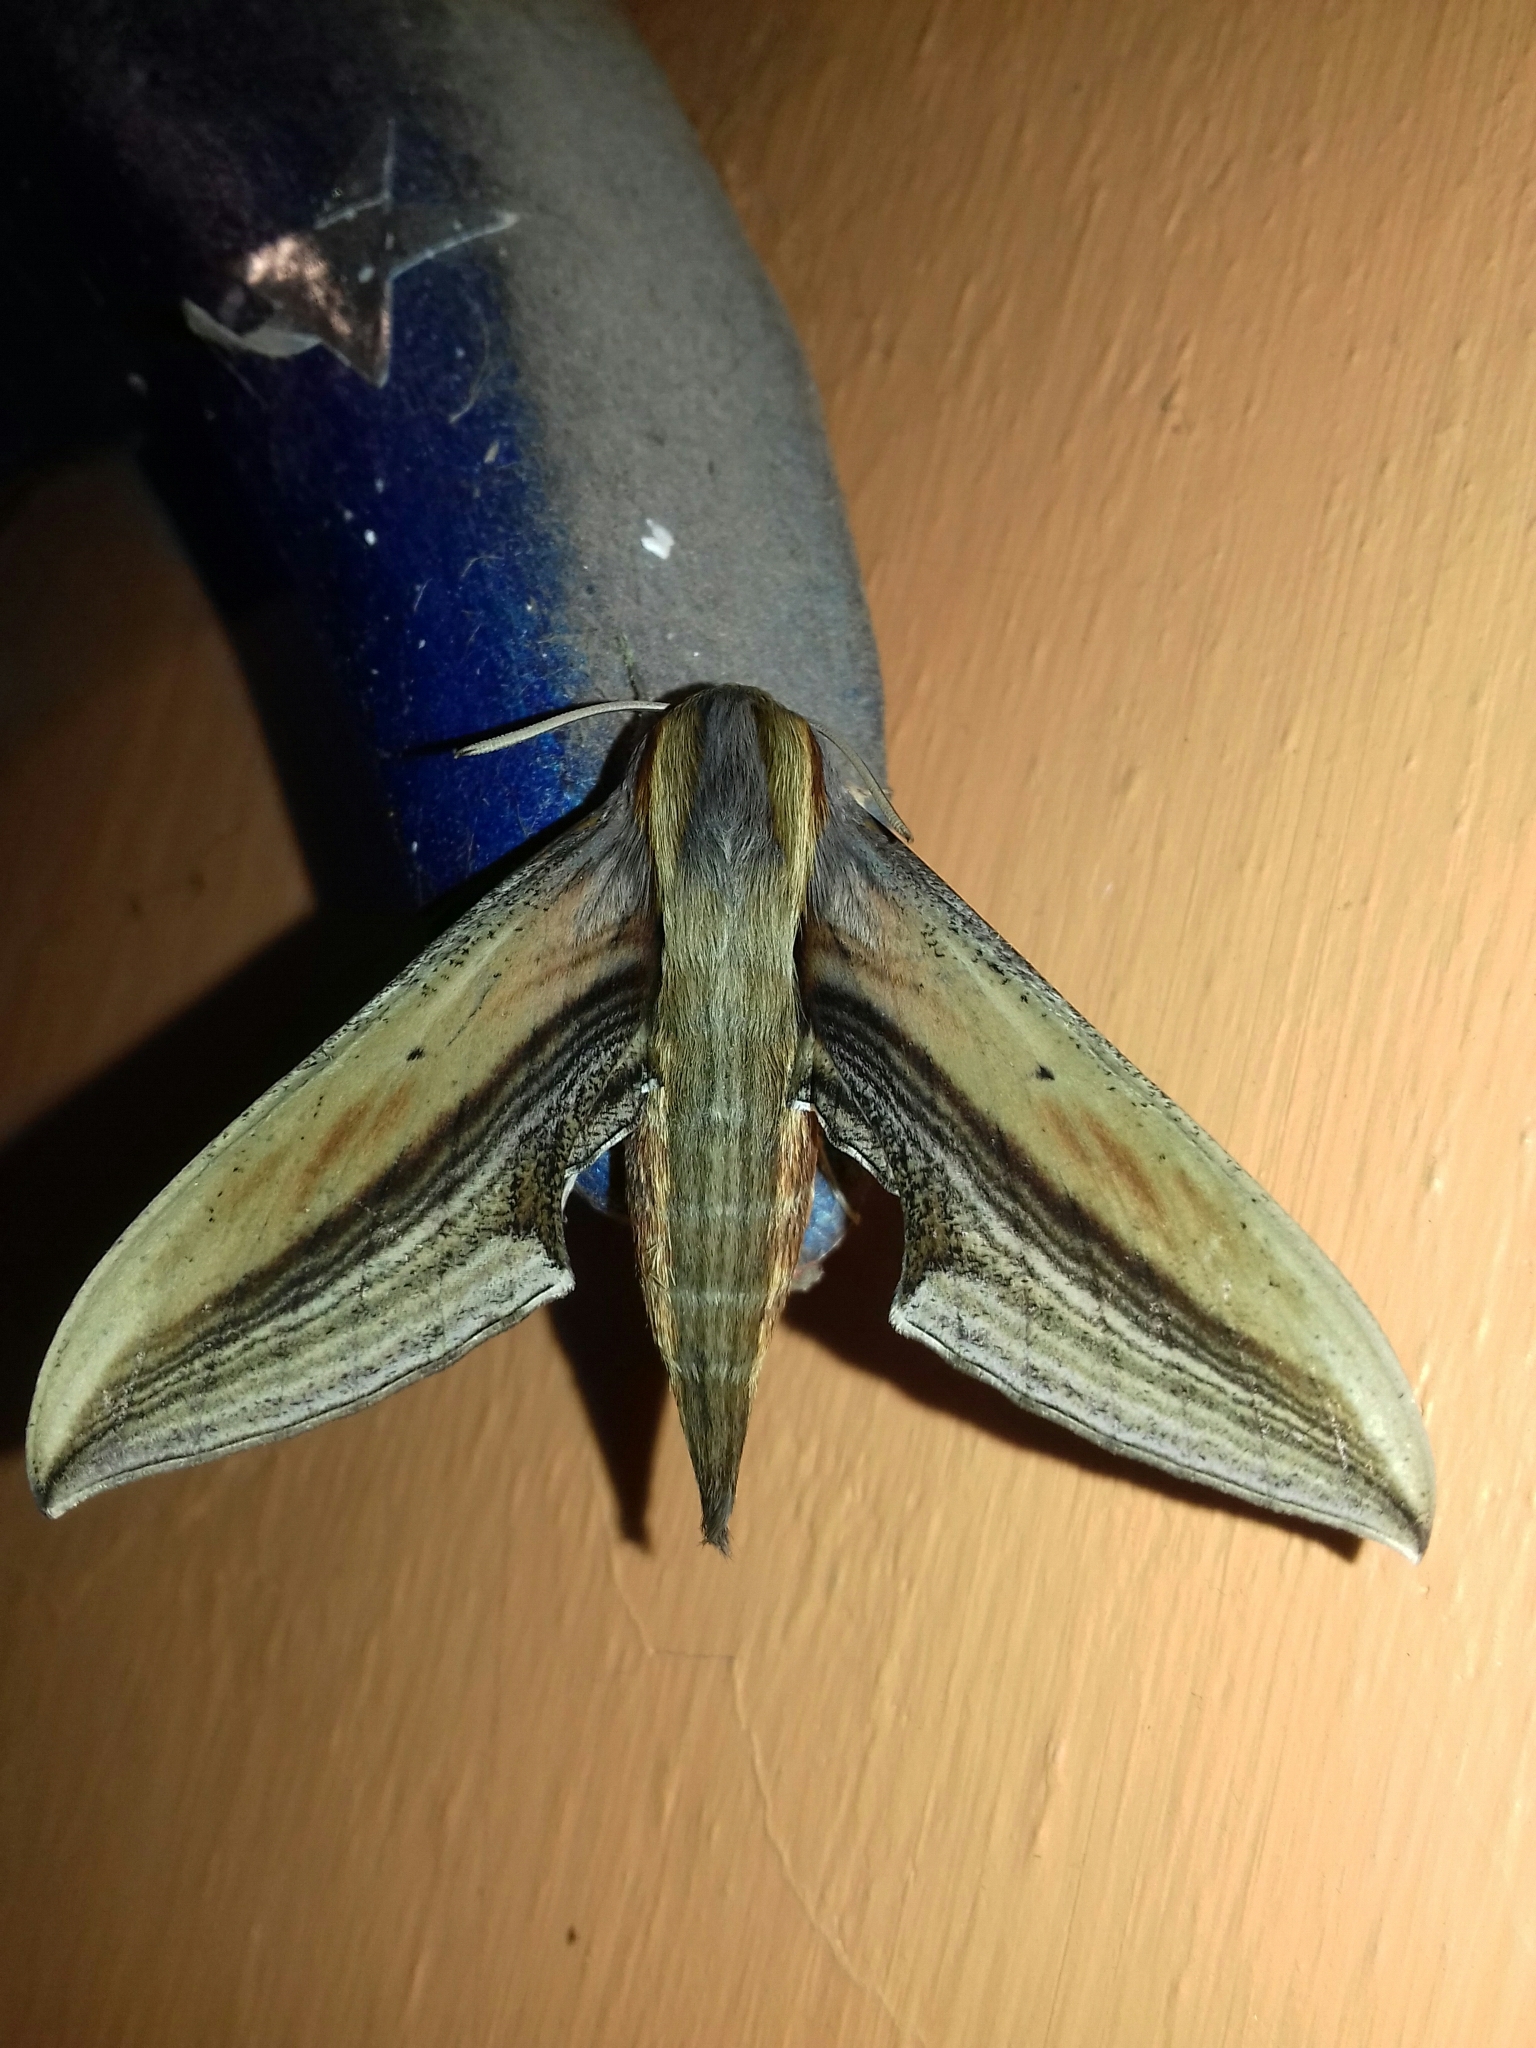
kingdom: Animalia
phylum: Arthropoda
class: Insecta
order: Lepidoptera
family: Sphingidae
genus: Xylophanes
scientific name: Xylophanes falco
